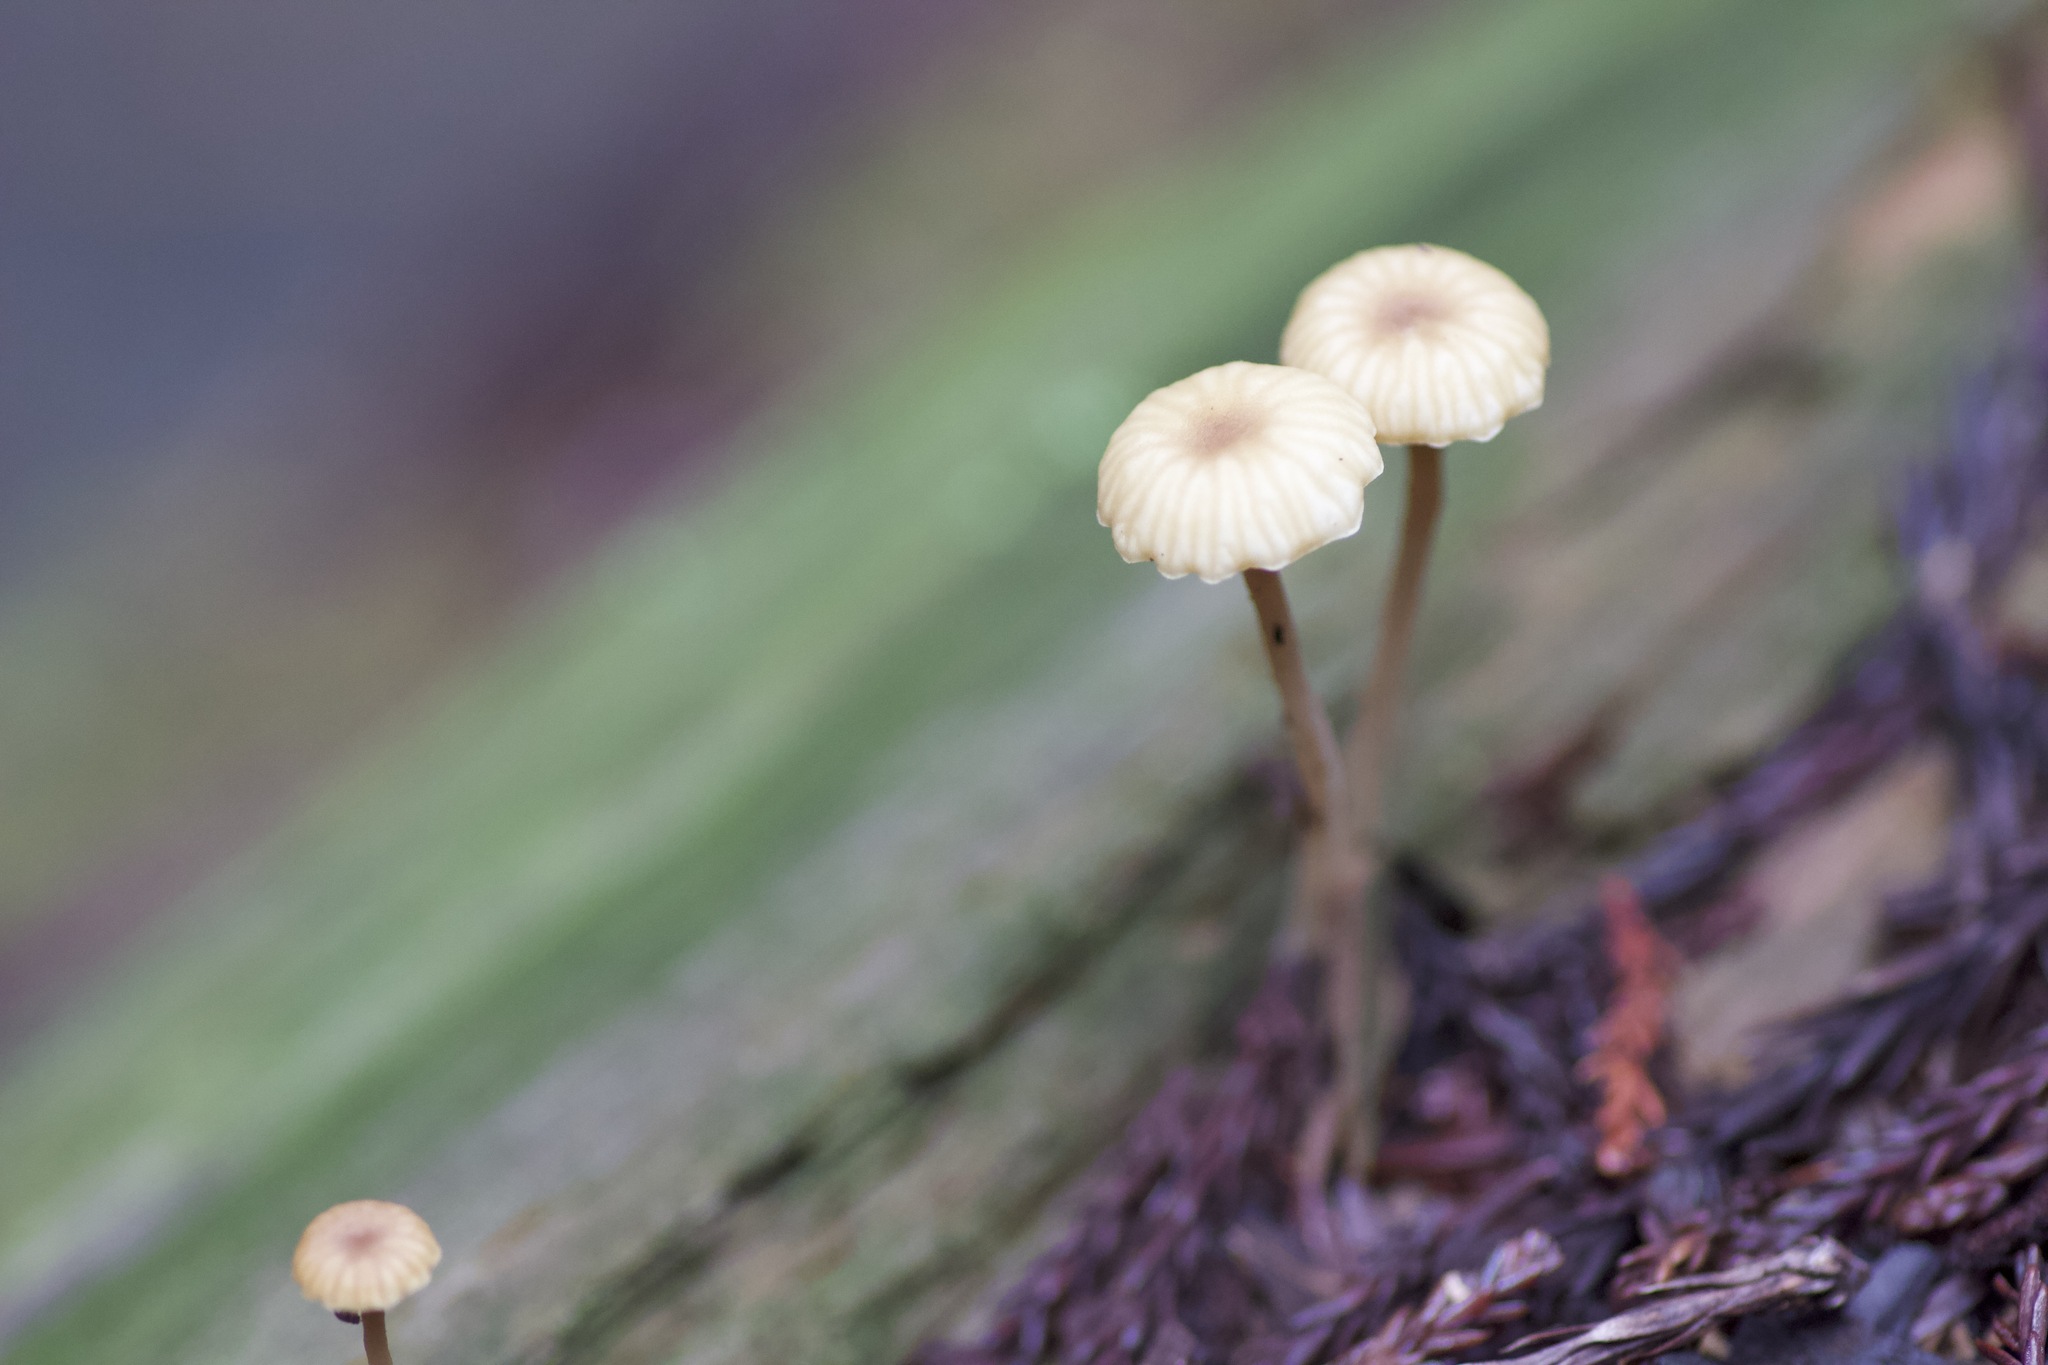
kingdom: Fungi
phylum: Basidiomycota
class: Agaricomycetes
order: Agaricales
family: Hygrophoraceae
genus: Lichenomphalia
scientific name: Lichenomphalia
